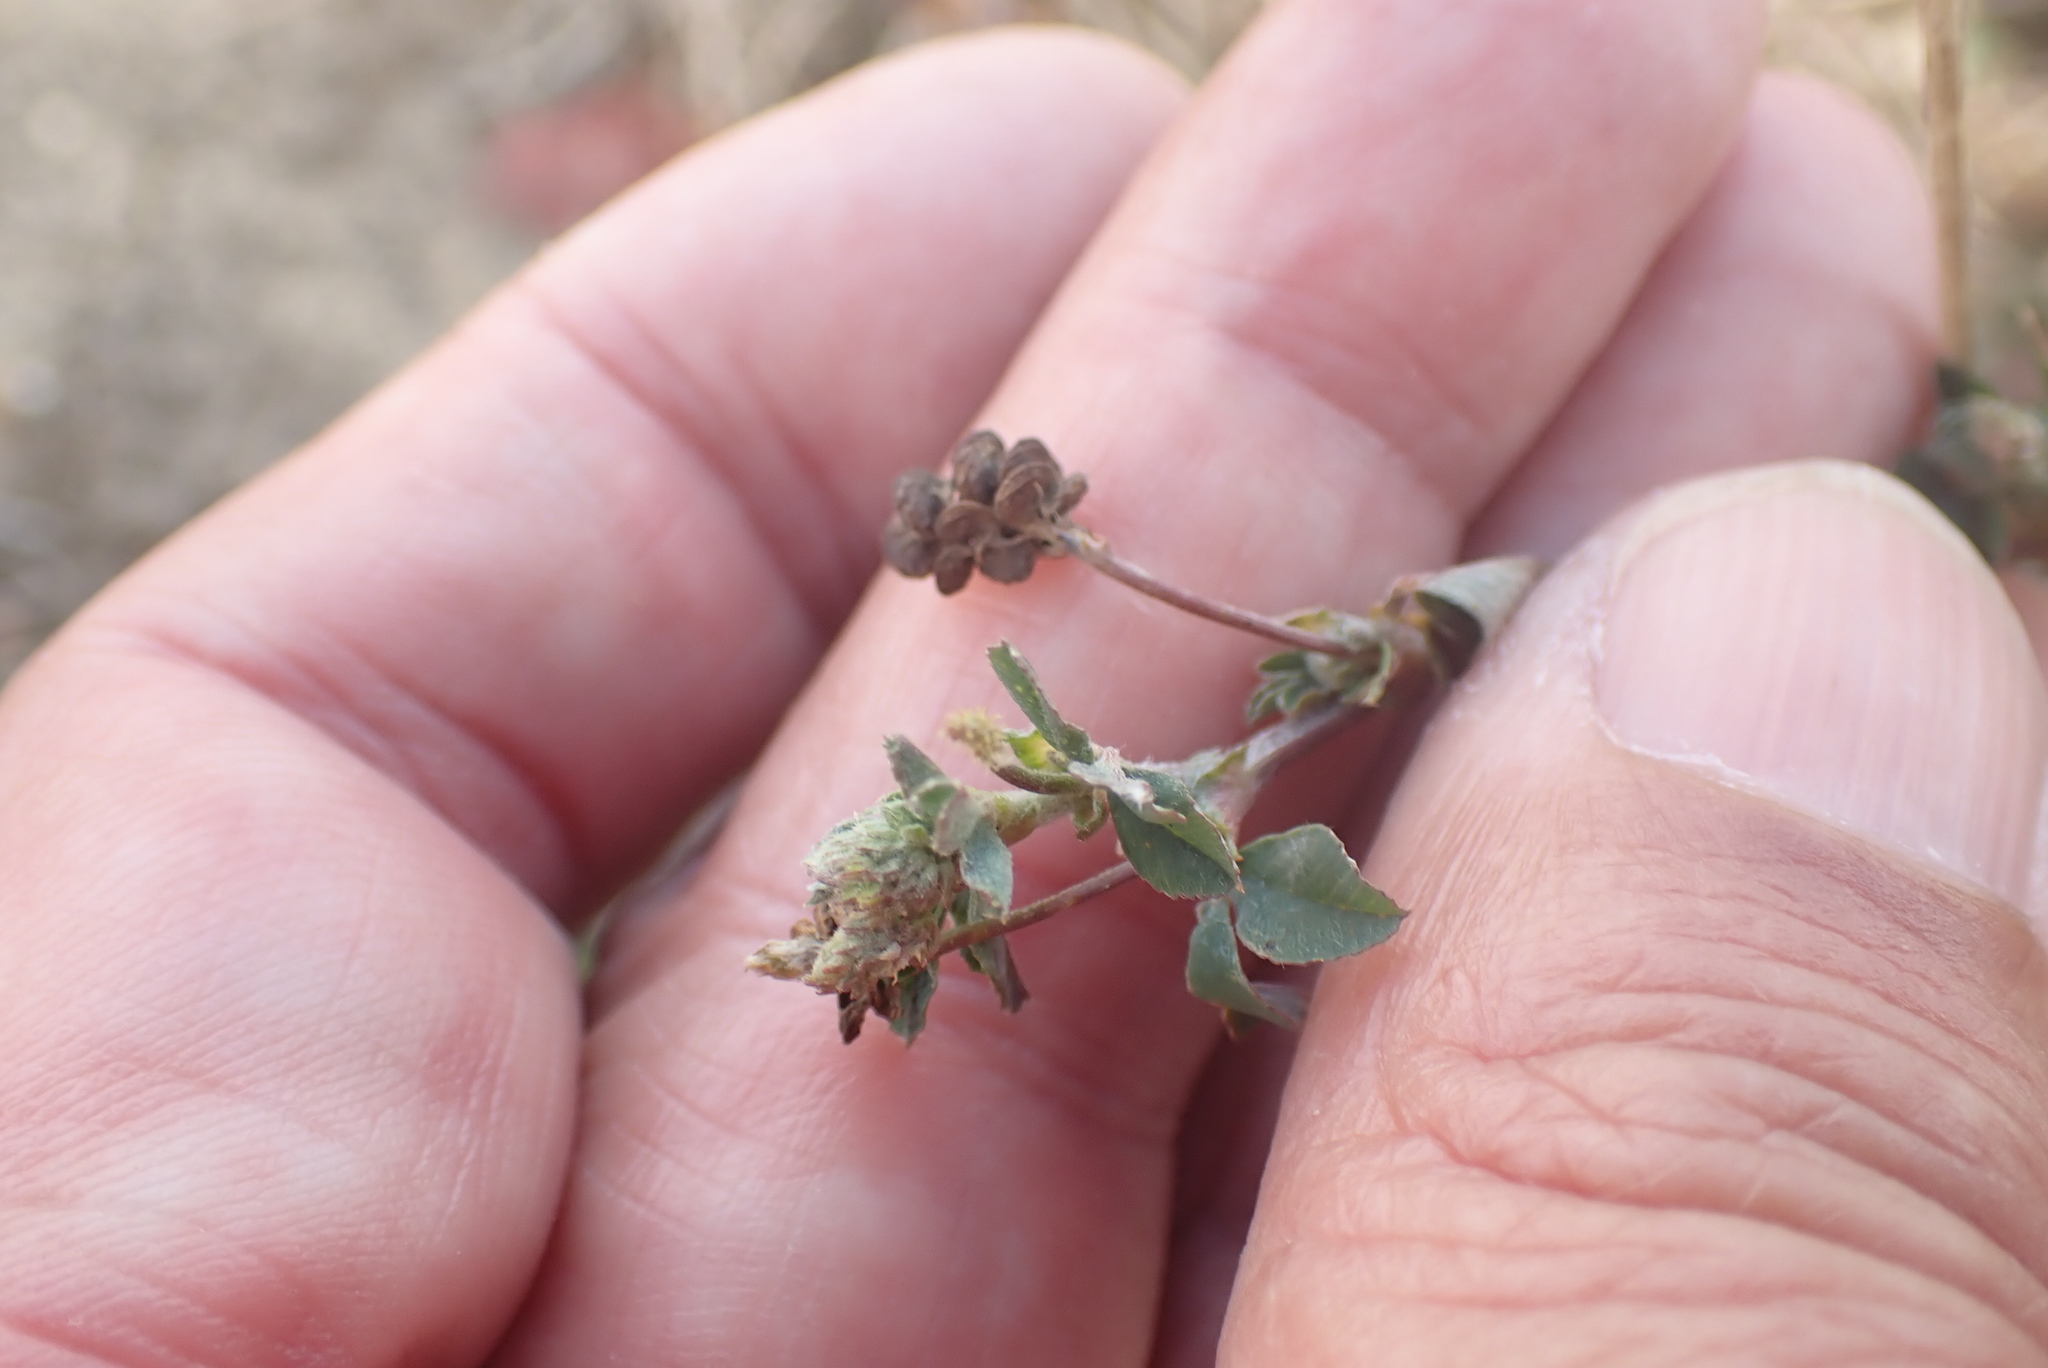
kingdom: Plantae
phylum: Tracheophyta
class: Magnoliopsida
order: Fabales
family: Fabaceae
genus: Medicago
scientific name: Medicago lupulina
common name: Black medick
